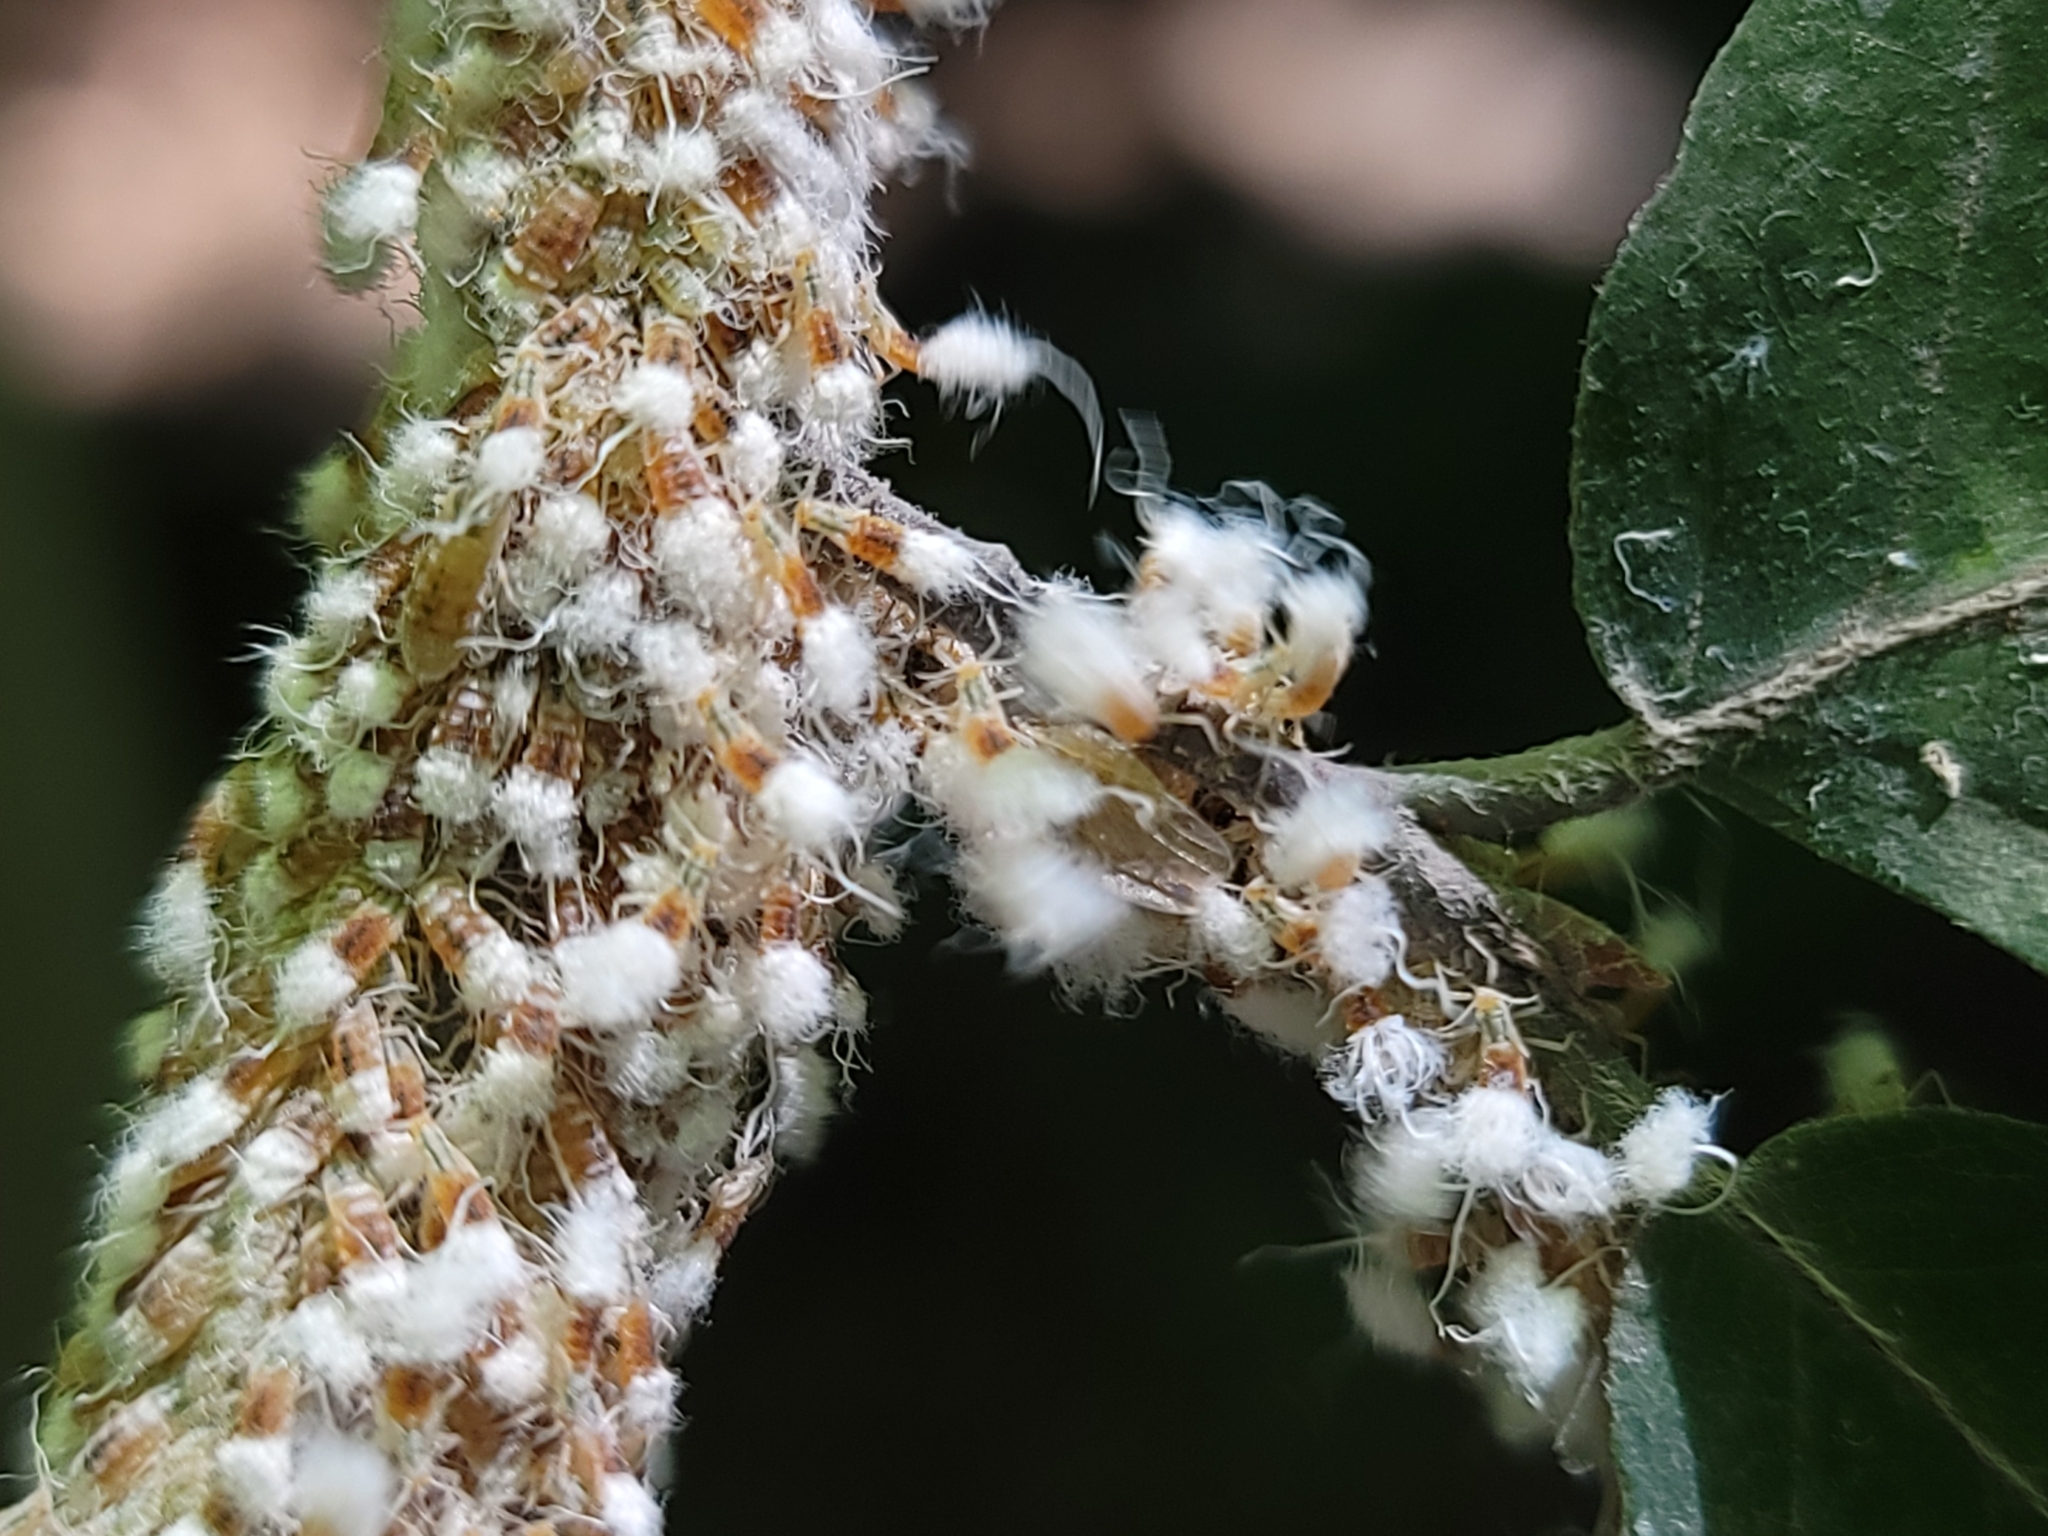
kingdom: Animalia
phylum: Arthropoda
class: Insecta
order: Hemiptera
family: Aphididae
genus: Grylloprociphilus
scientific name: Grylloprociphilus imbricator
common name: Beech blight aphid
